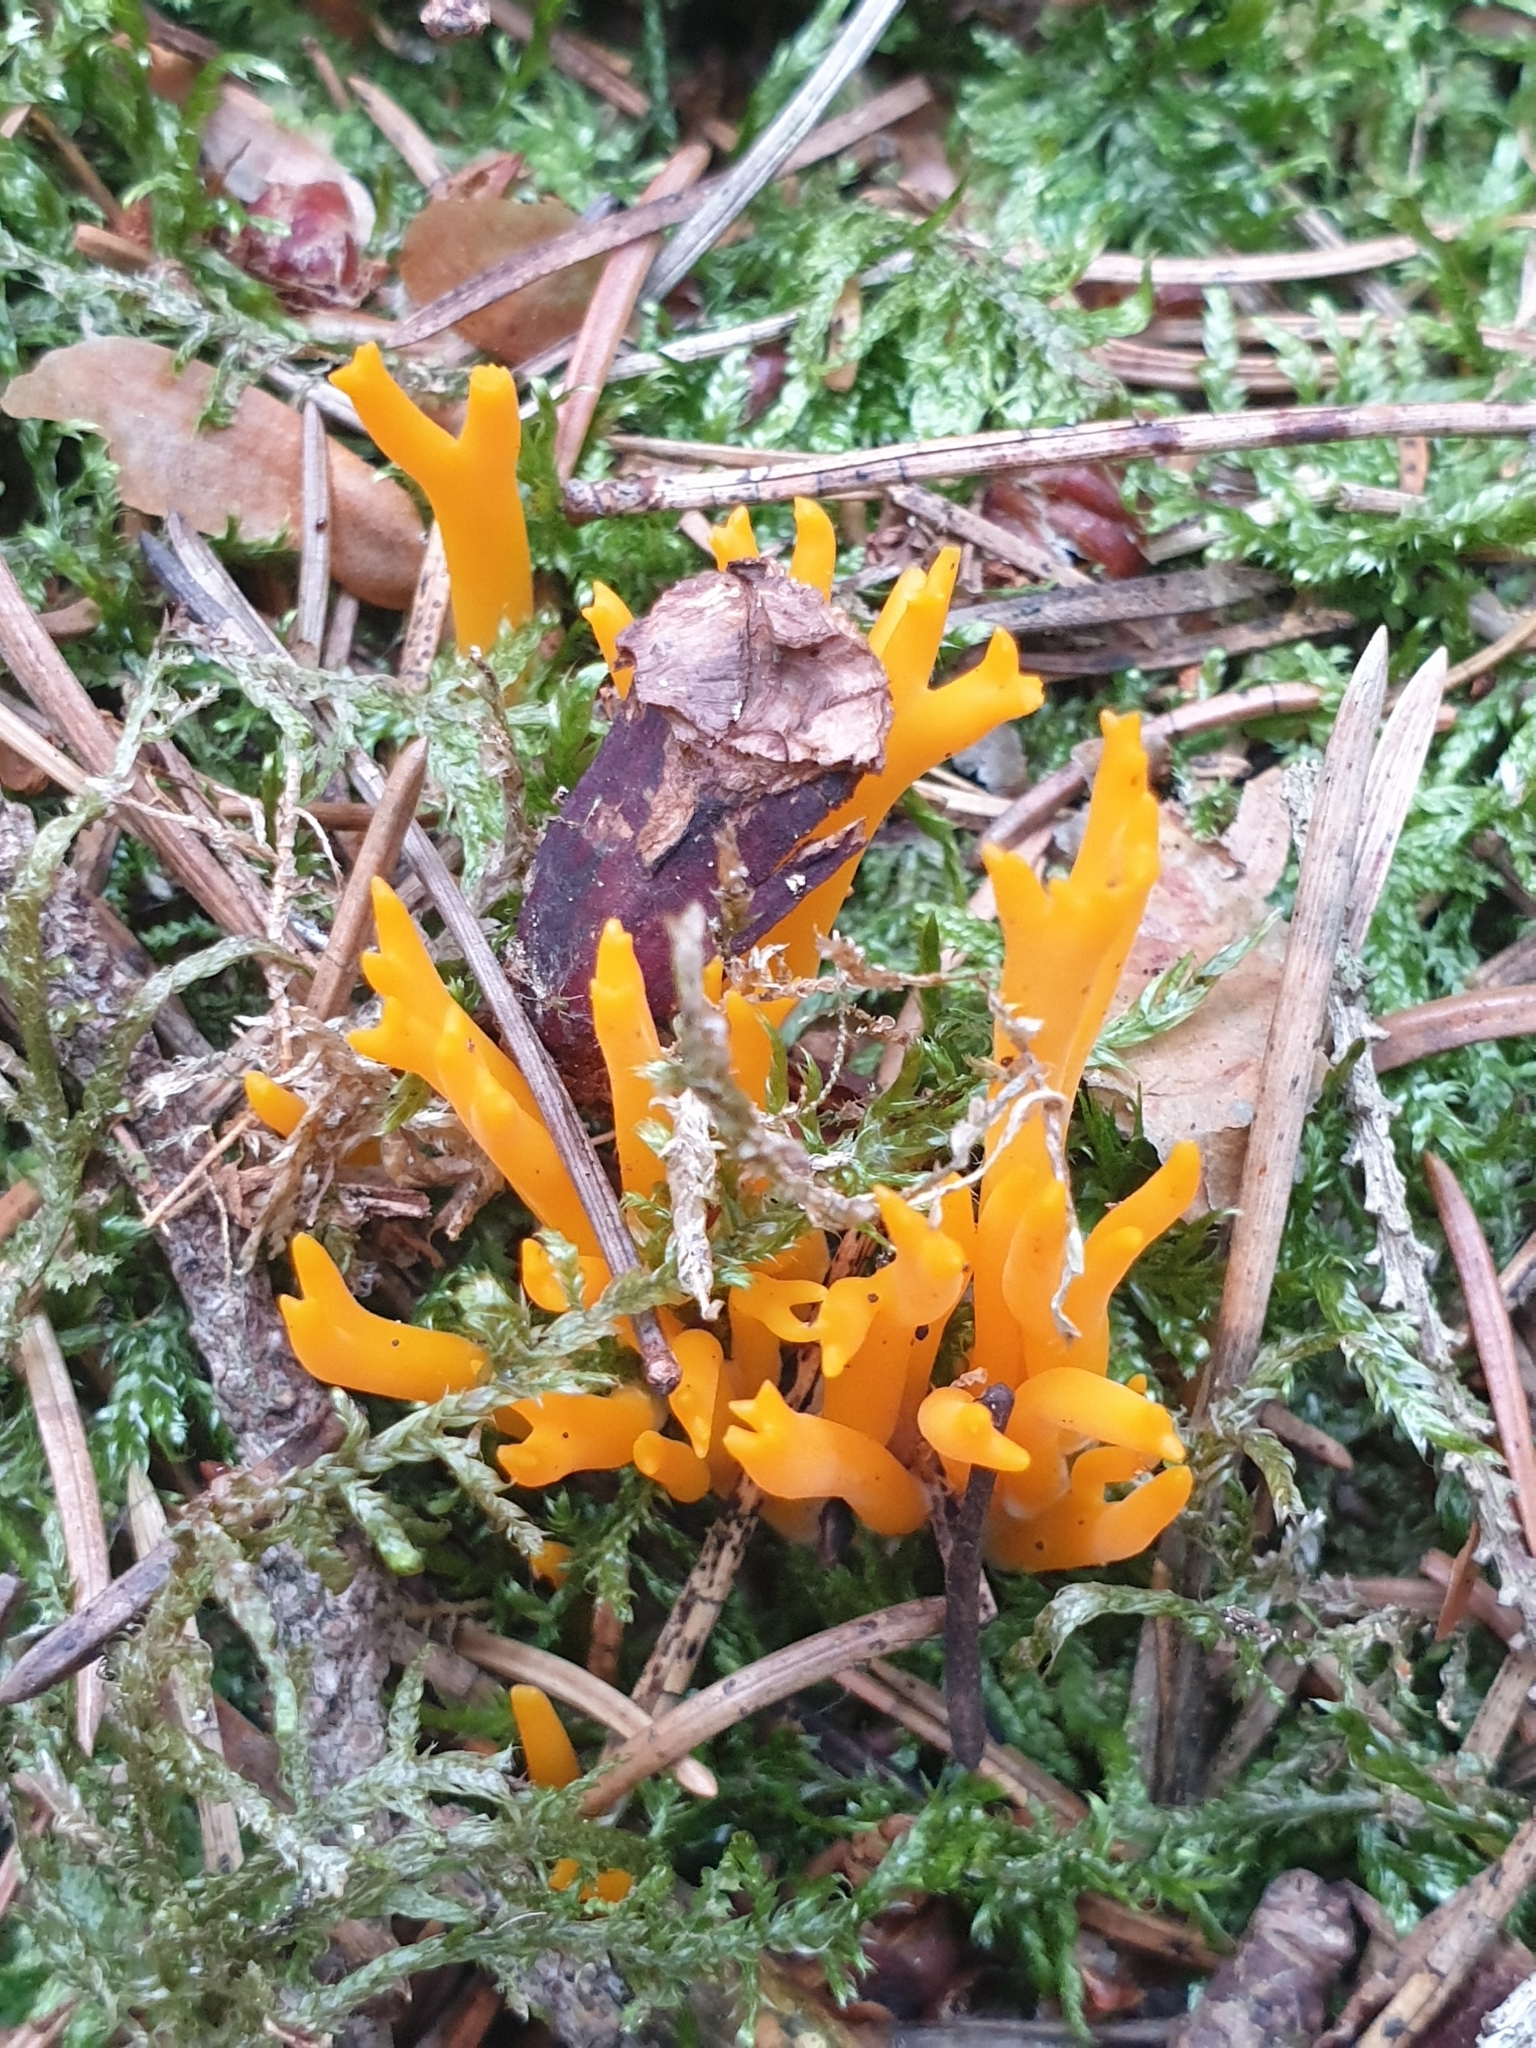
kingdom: Fungi
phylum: Basidiomycota
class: Dacrymycetes
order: Dacrymycetales
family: Dacrymycetaceae
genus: Calocera
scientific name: Calocera viscosa
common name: Yellow stagshorn
